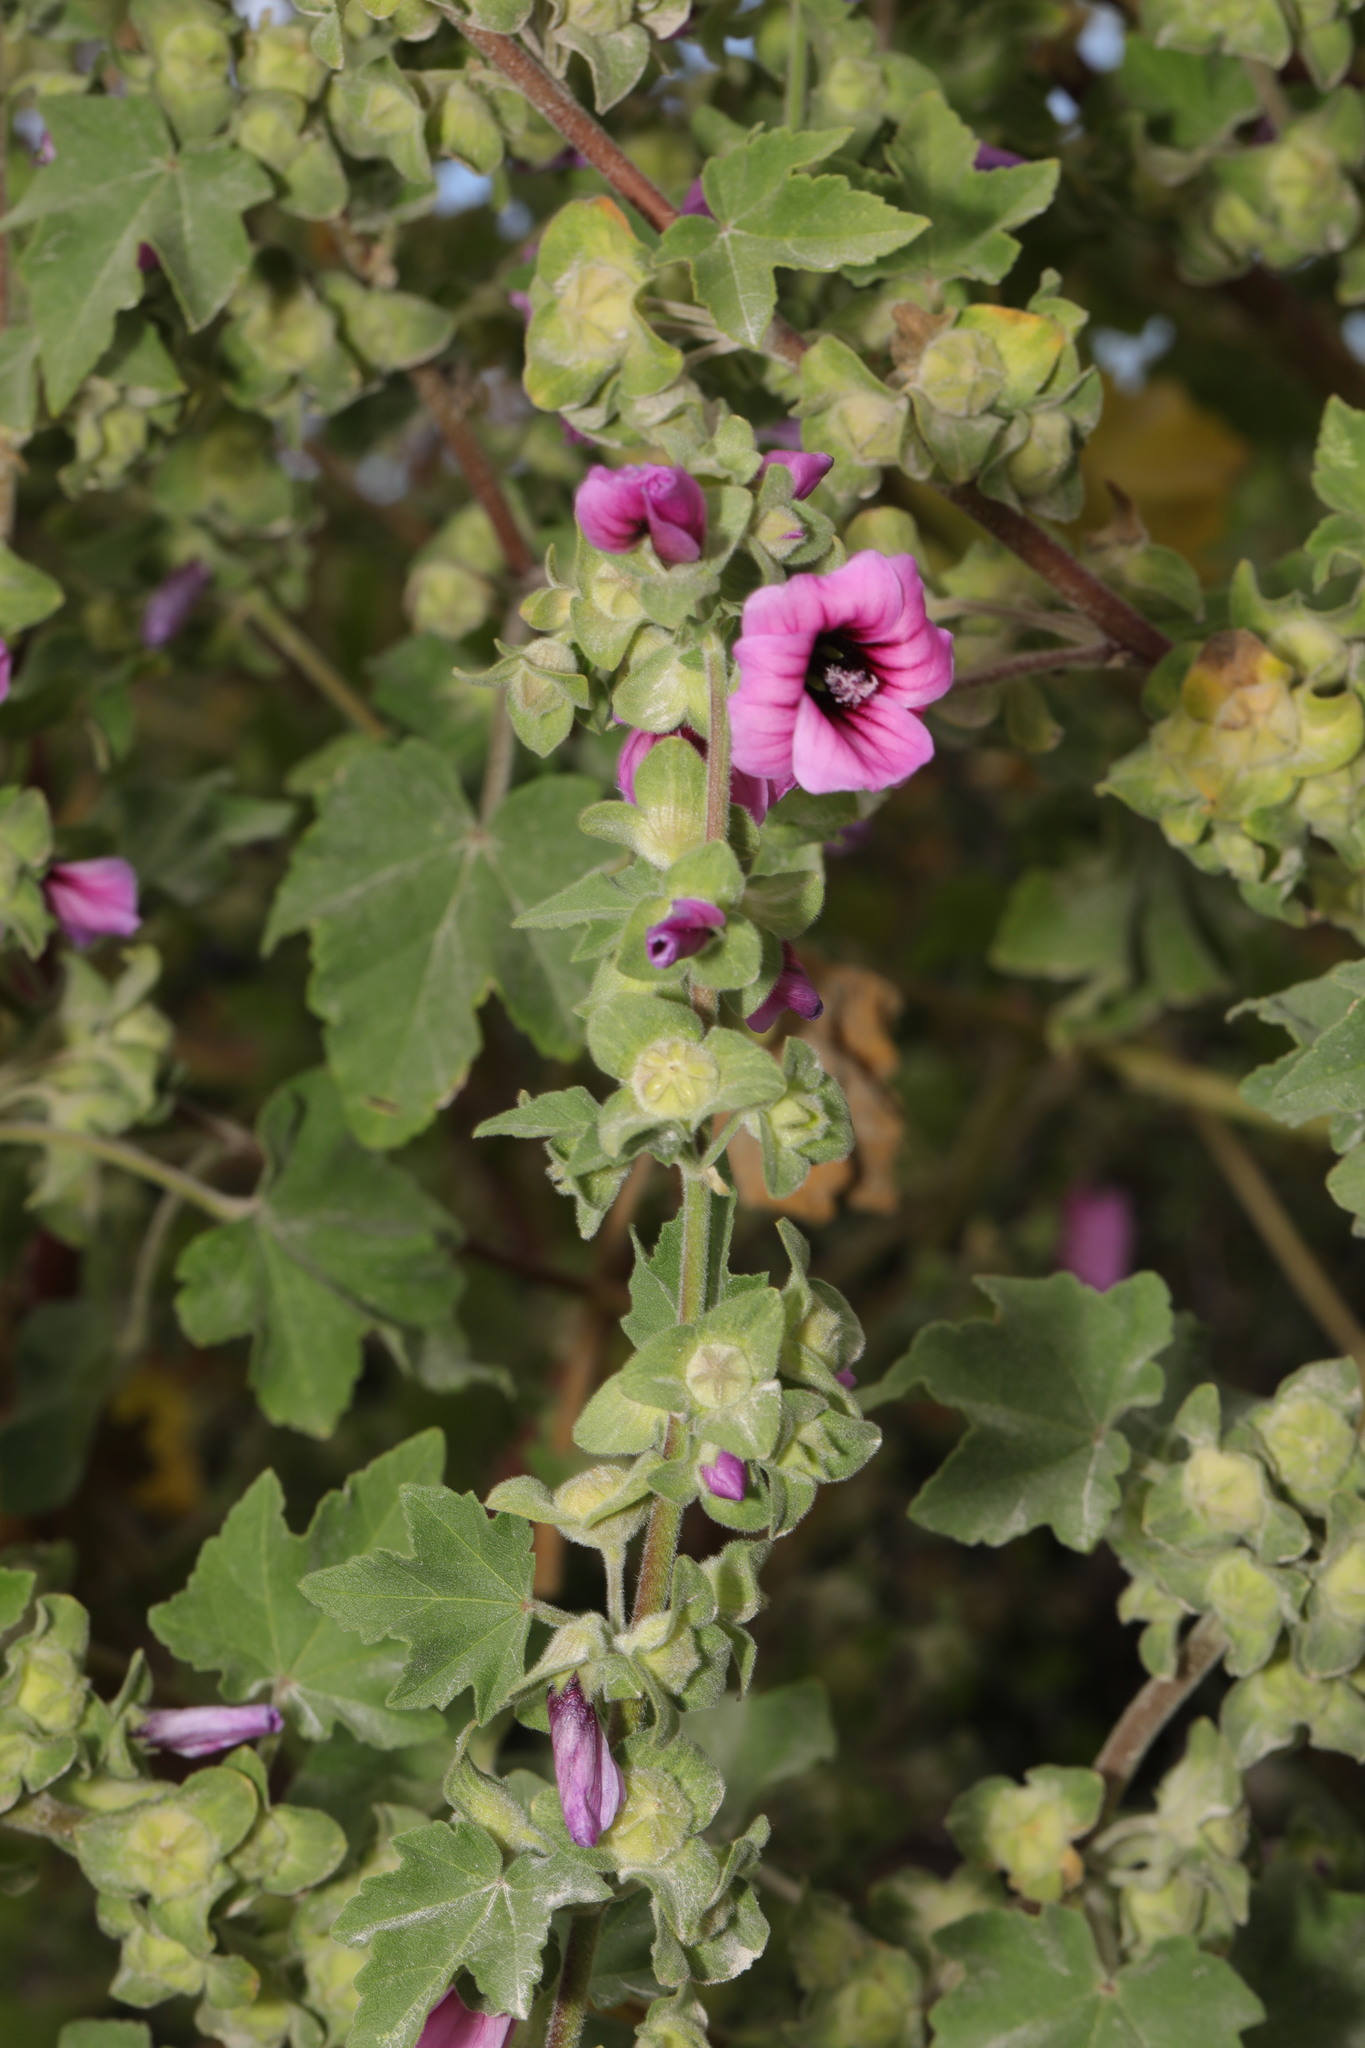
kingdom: Plantae
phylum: Tracheophyta
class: Magnoliopsida
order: Malvales
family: Malvaceae
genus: Malva
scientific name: Malva arborea
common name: Tree mallow
